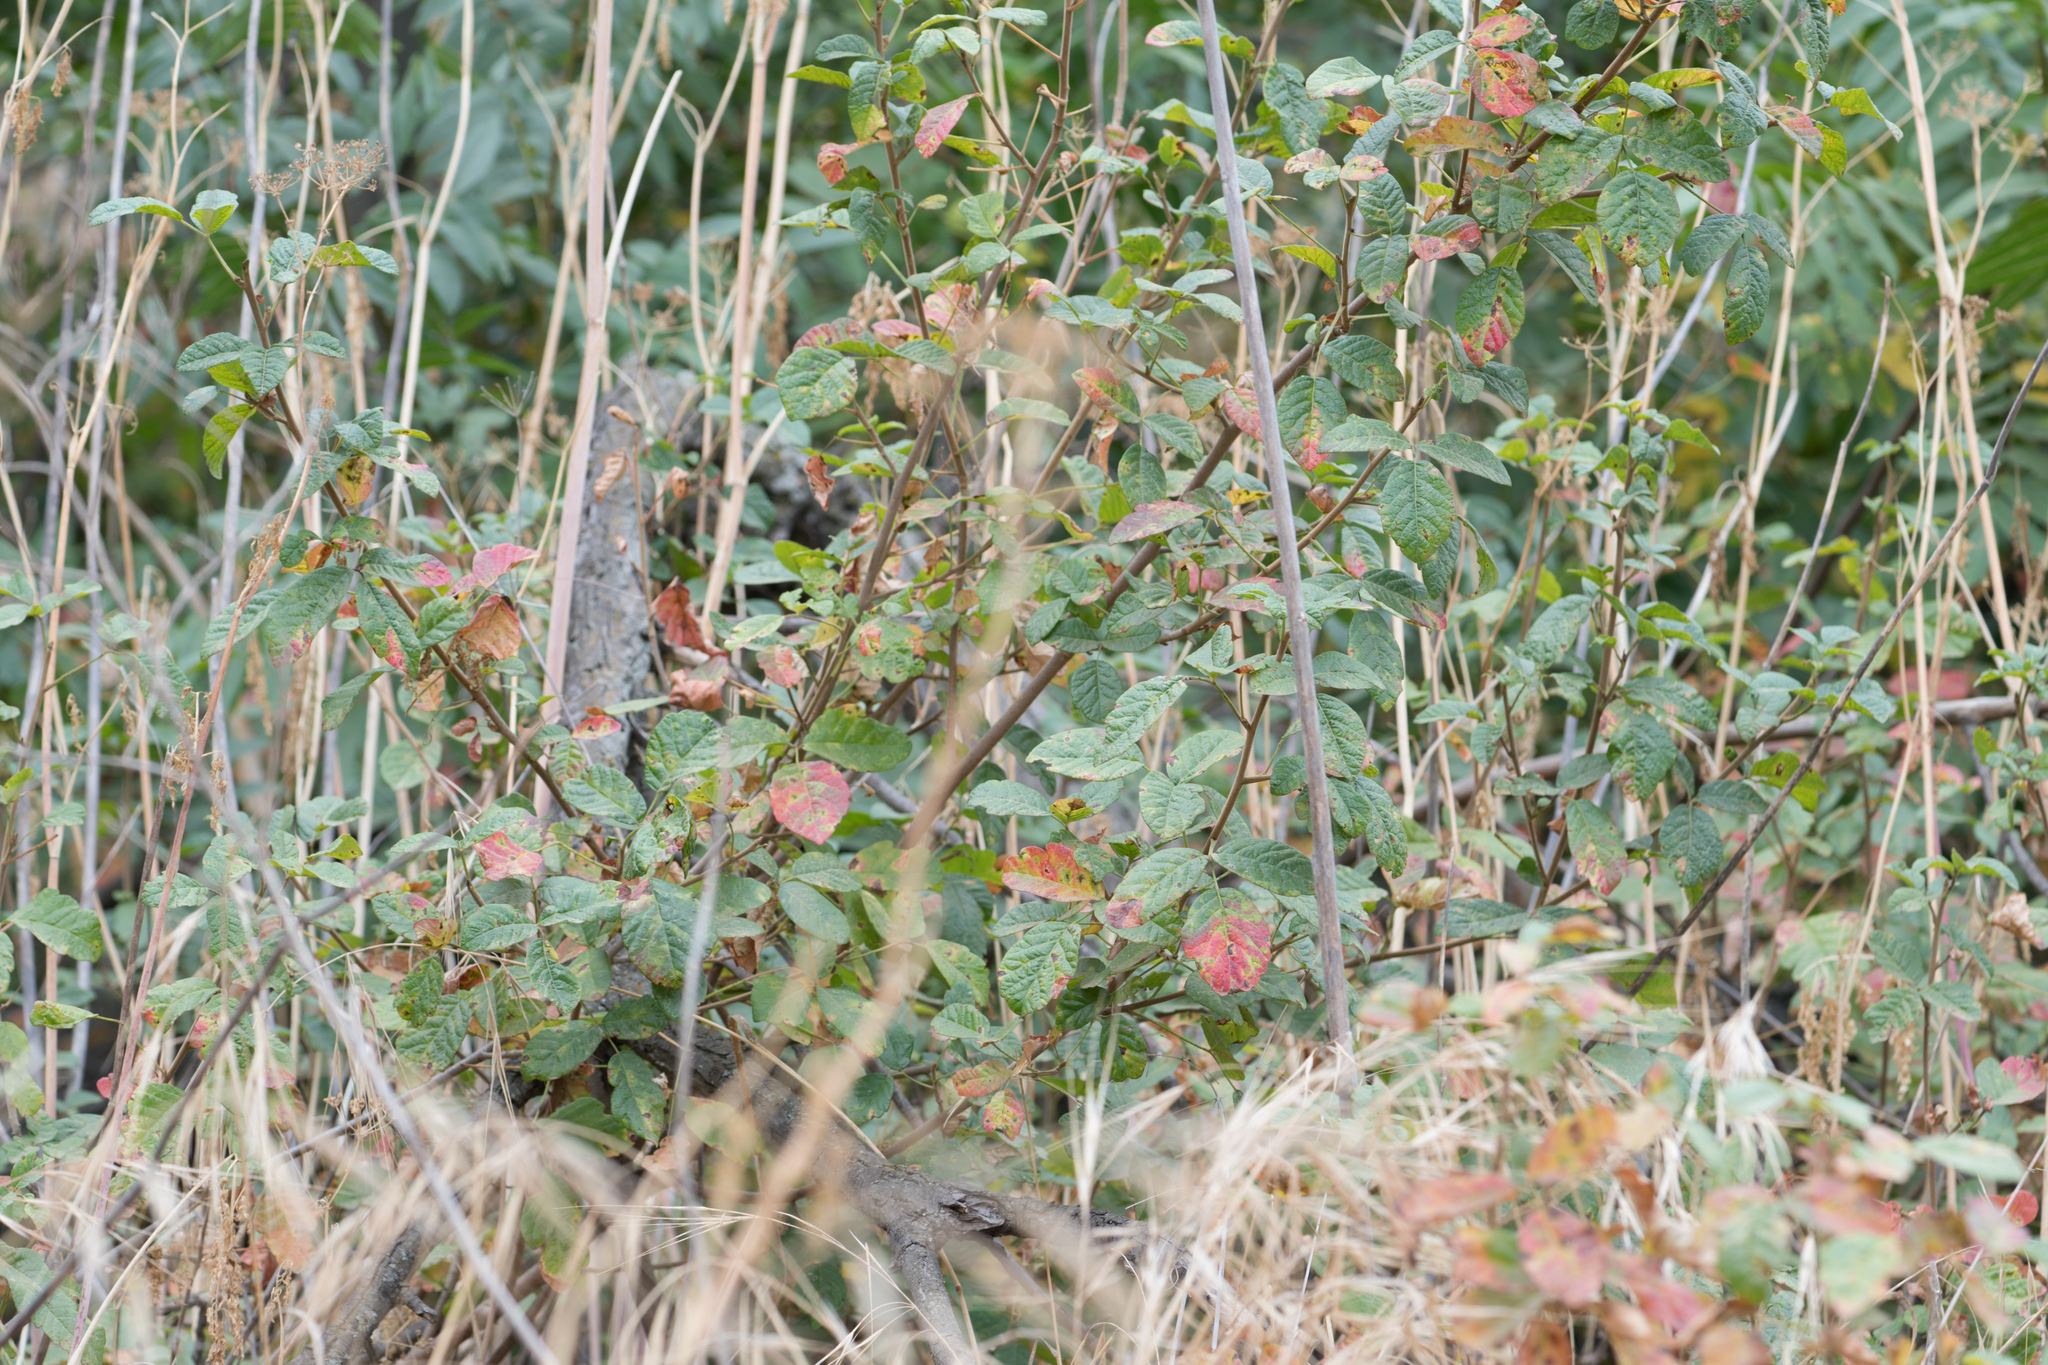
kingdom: Plantae
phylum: Tracheophyta
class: Magnoliopsida
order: Sapindales
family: Anacardiaceae
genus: Toxicodendron
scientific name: Toxicodendron diversilobum
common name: Pacific poison-oak
